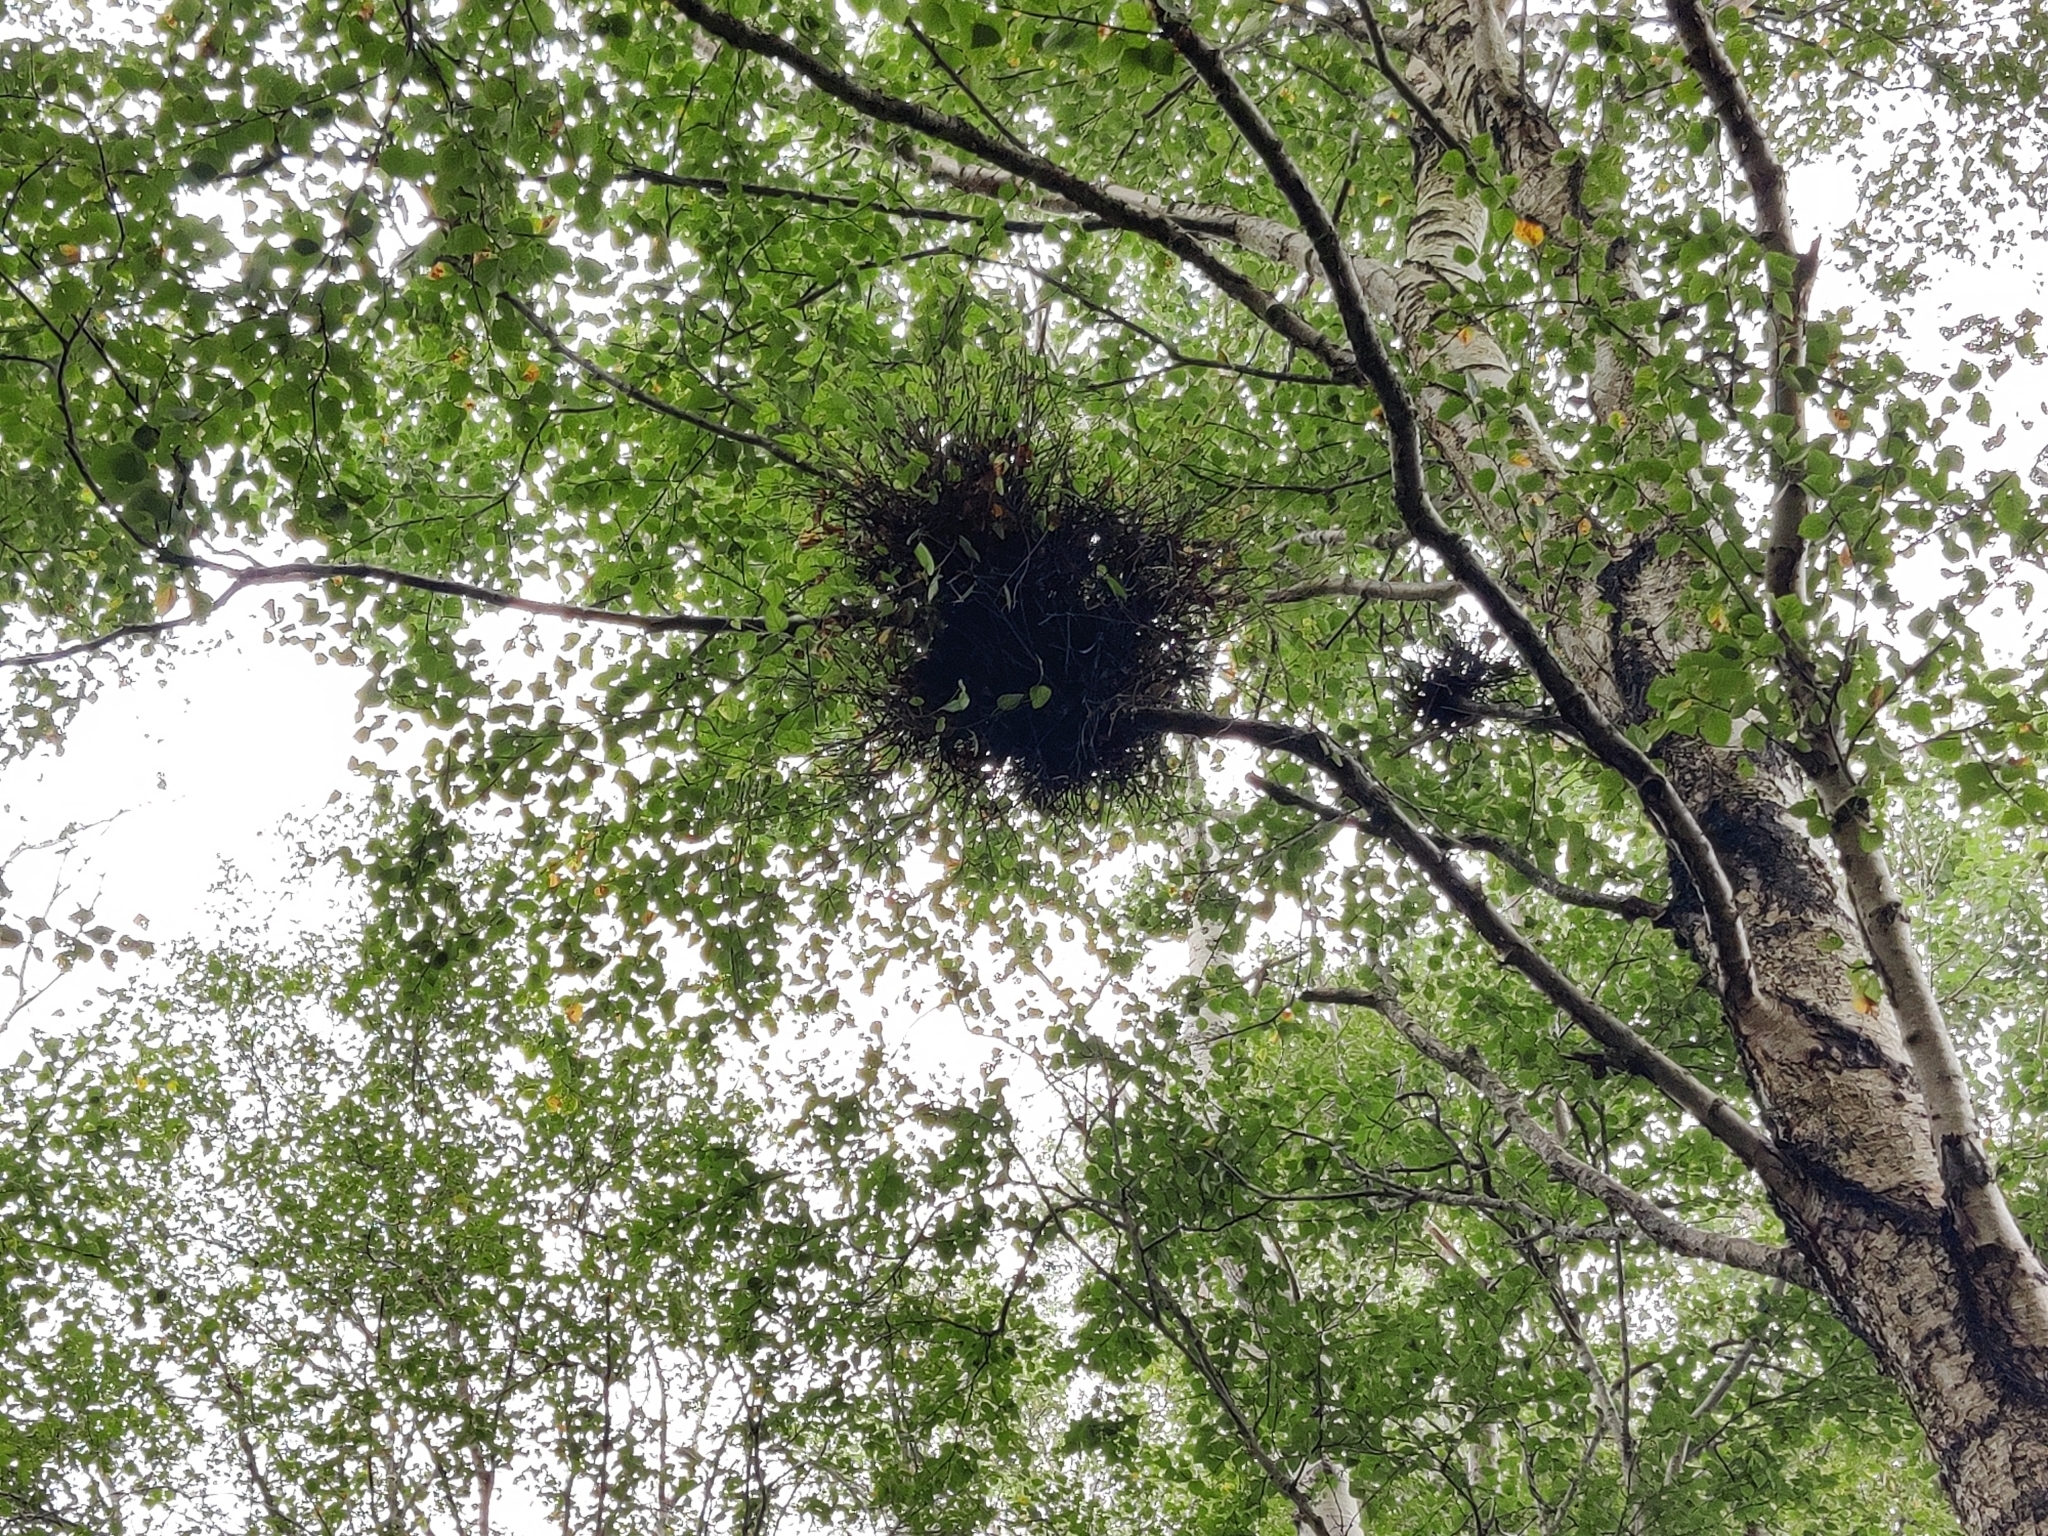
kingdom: Fungi
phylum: Ascomycota
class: Taphrinomycetes
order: Taphrinales
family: Taphrinaceae
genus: Taphrina
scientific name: Taphrina betulina
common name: Birch besom
